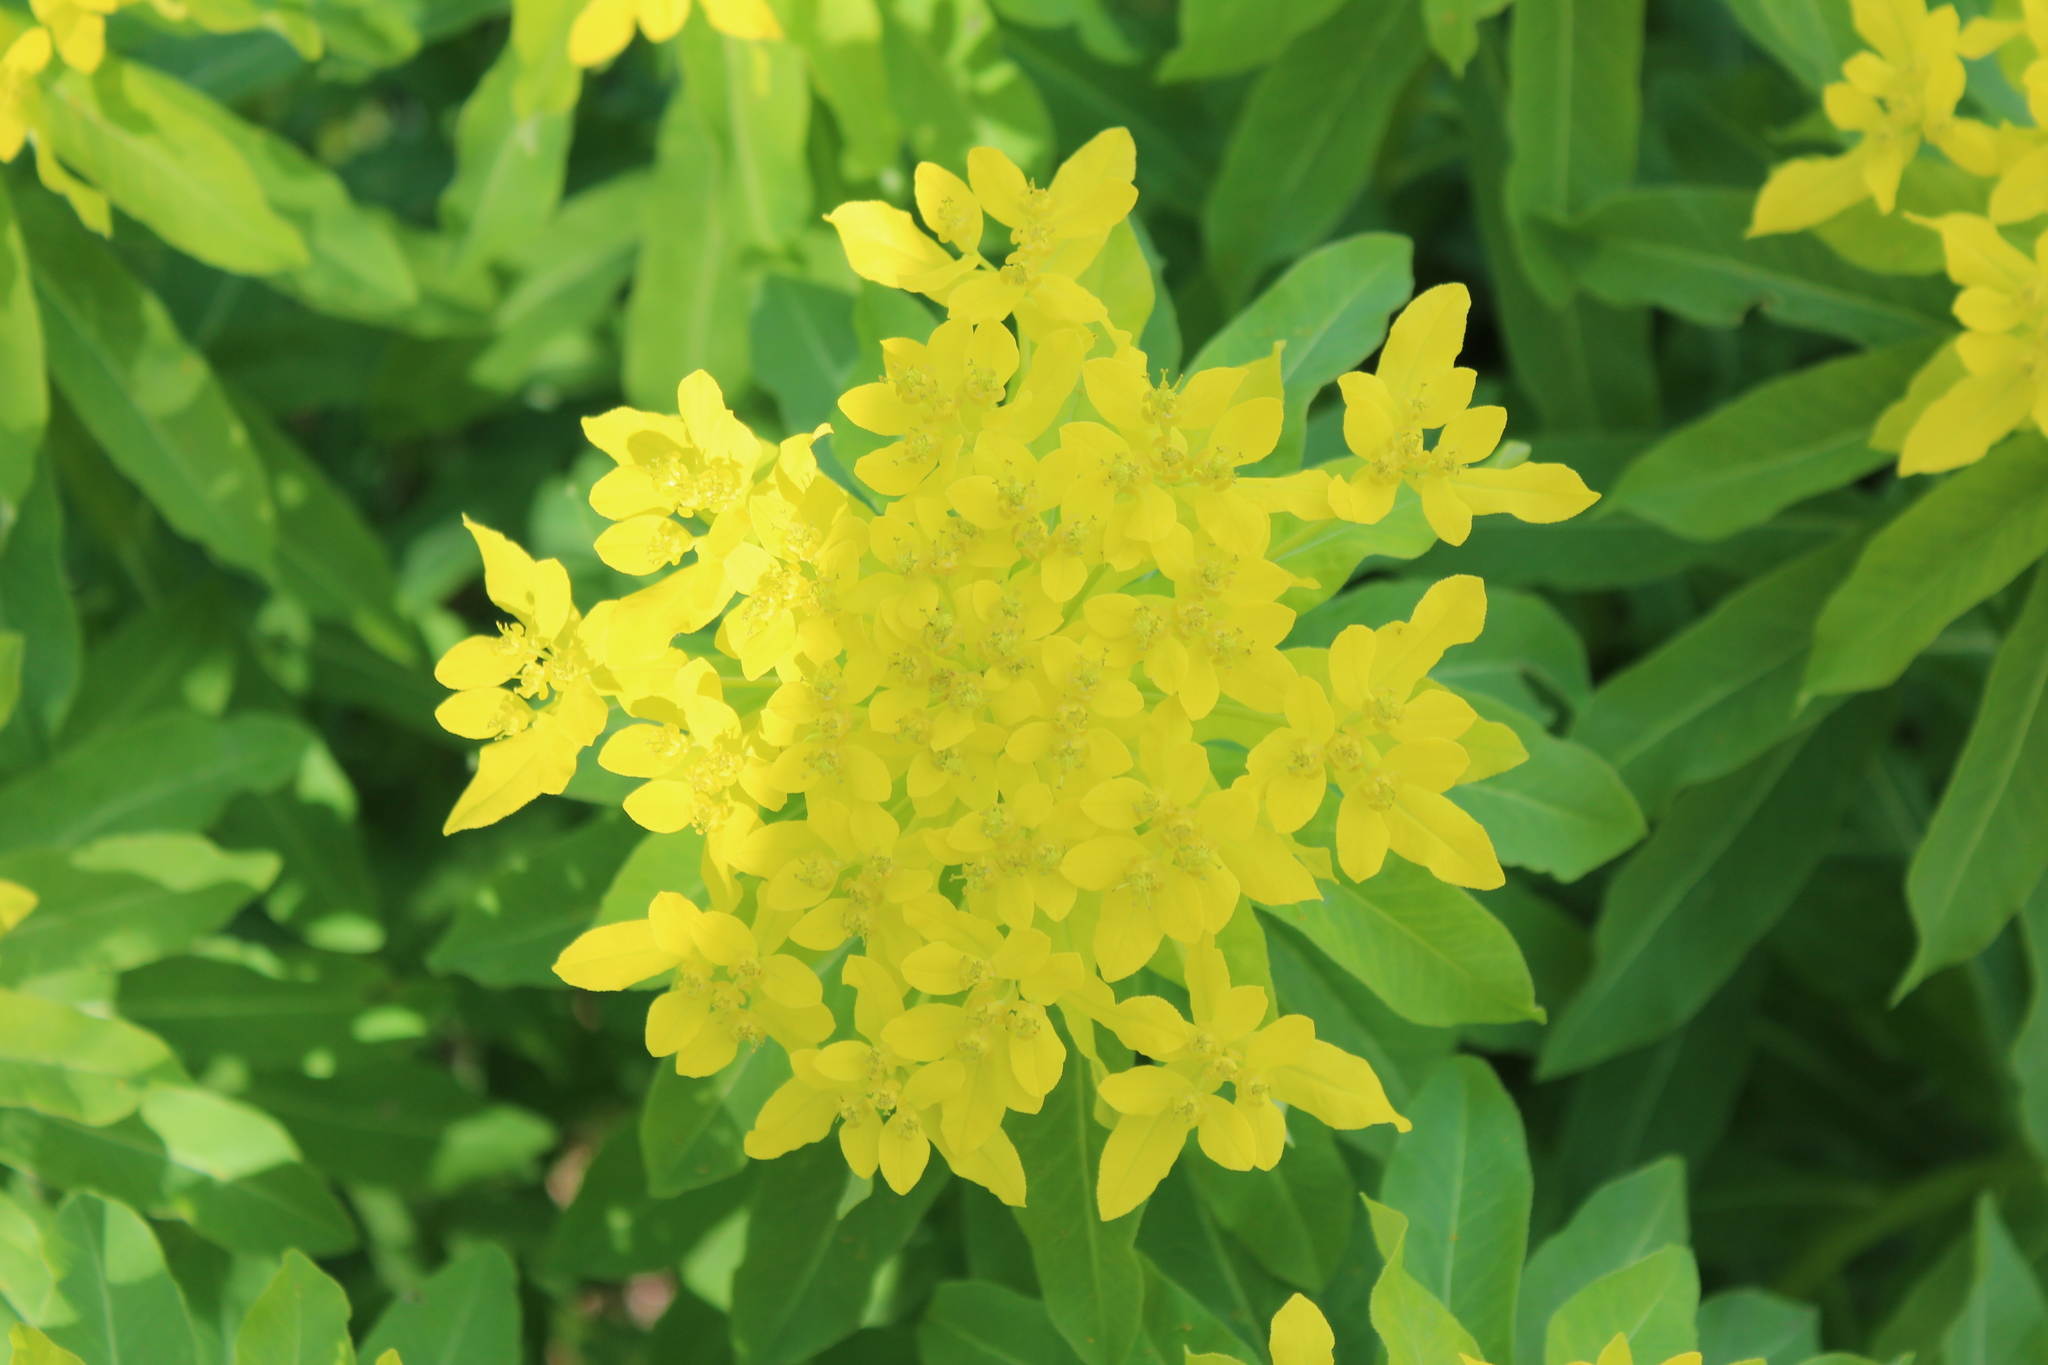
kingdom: Plantae
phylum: Tracheophyta
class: Magnoliopsida
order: Malpighiales
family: Euphorbiaceae
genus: Euphorbia
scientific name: Euphorbia pilosa
